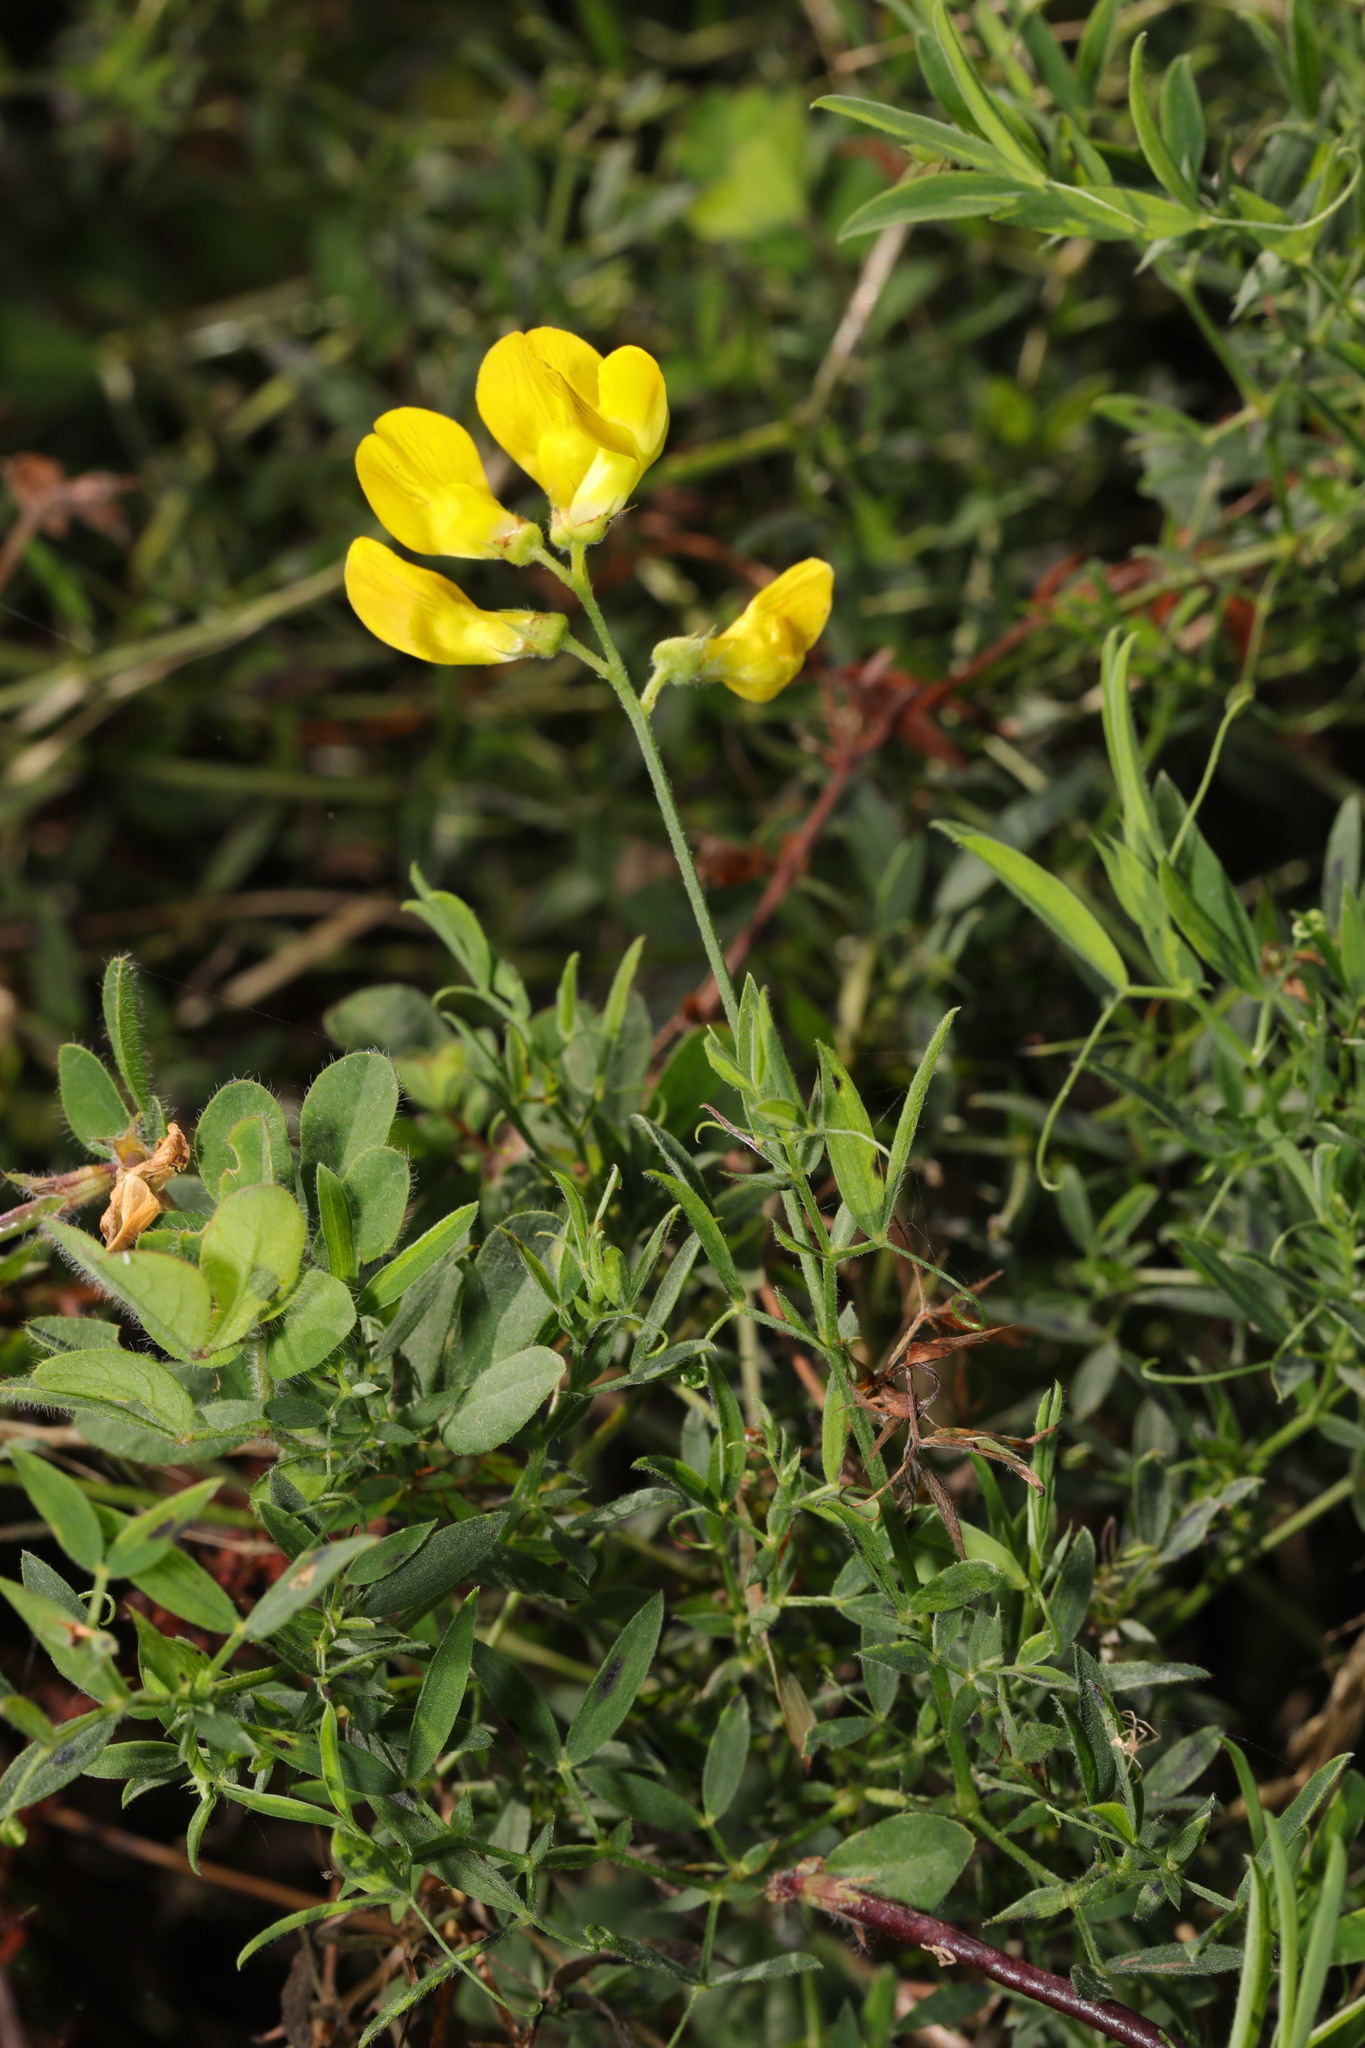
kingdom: Plantae
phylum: Tracheophyta
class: Magnoliopsida
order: Fabales
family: Fabaceae
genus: Lathyrus
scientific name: Lathyrus pratensis
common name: Meadow vetchling
